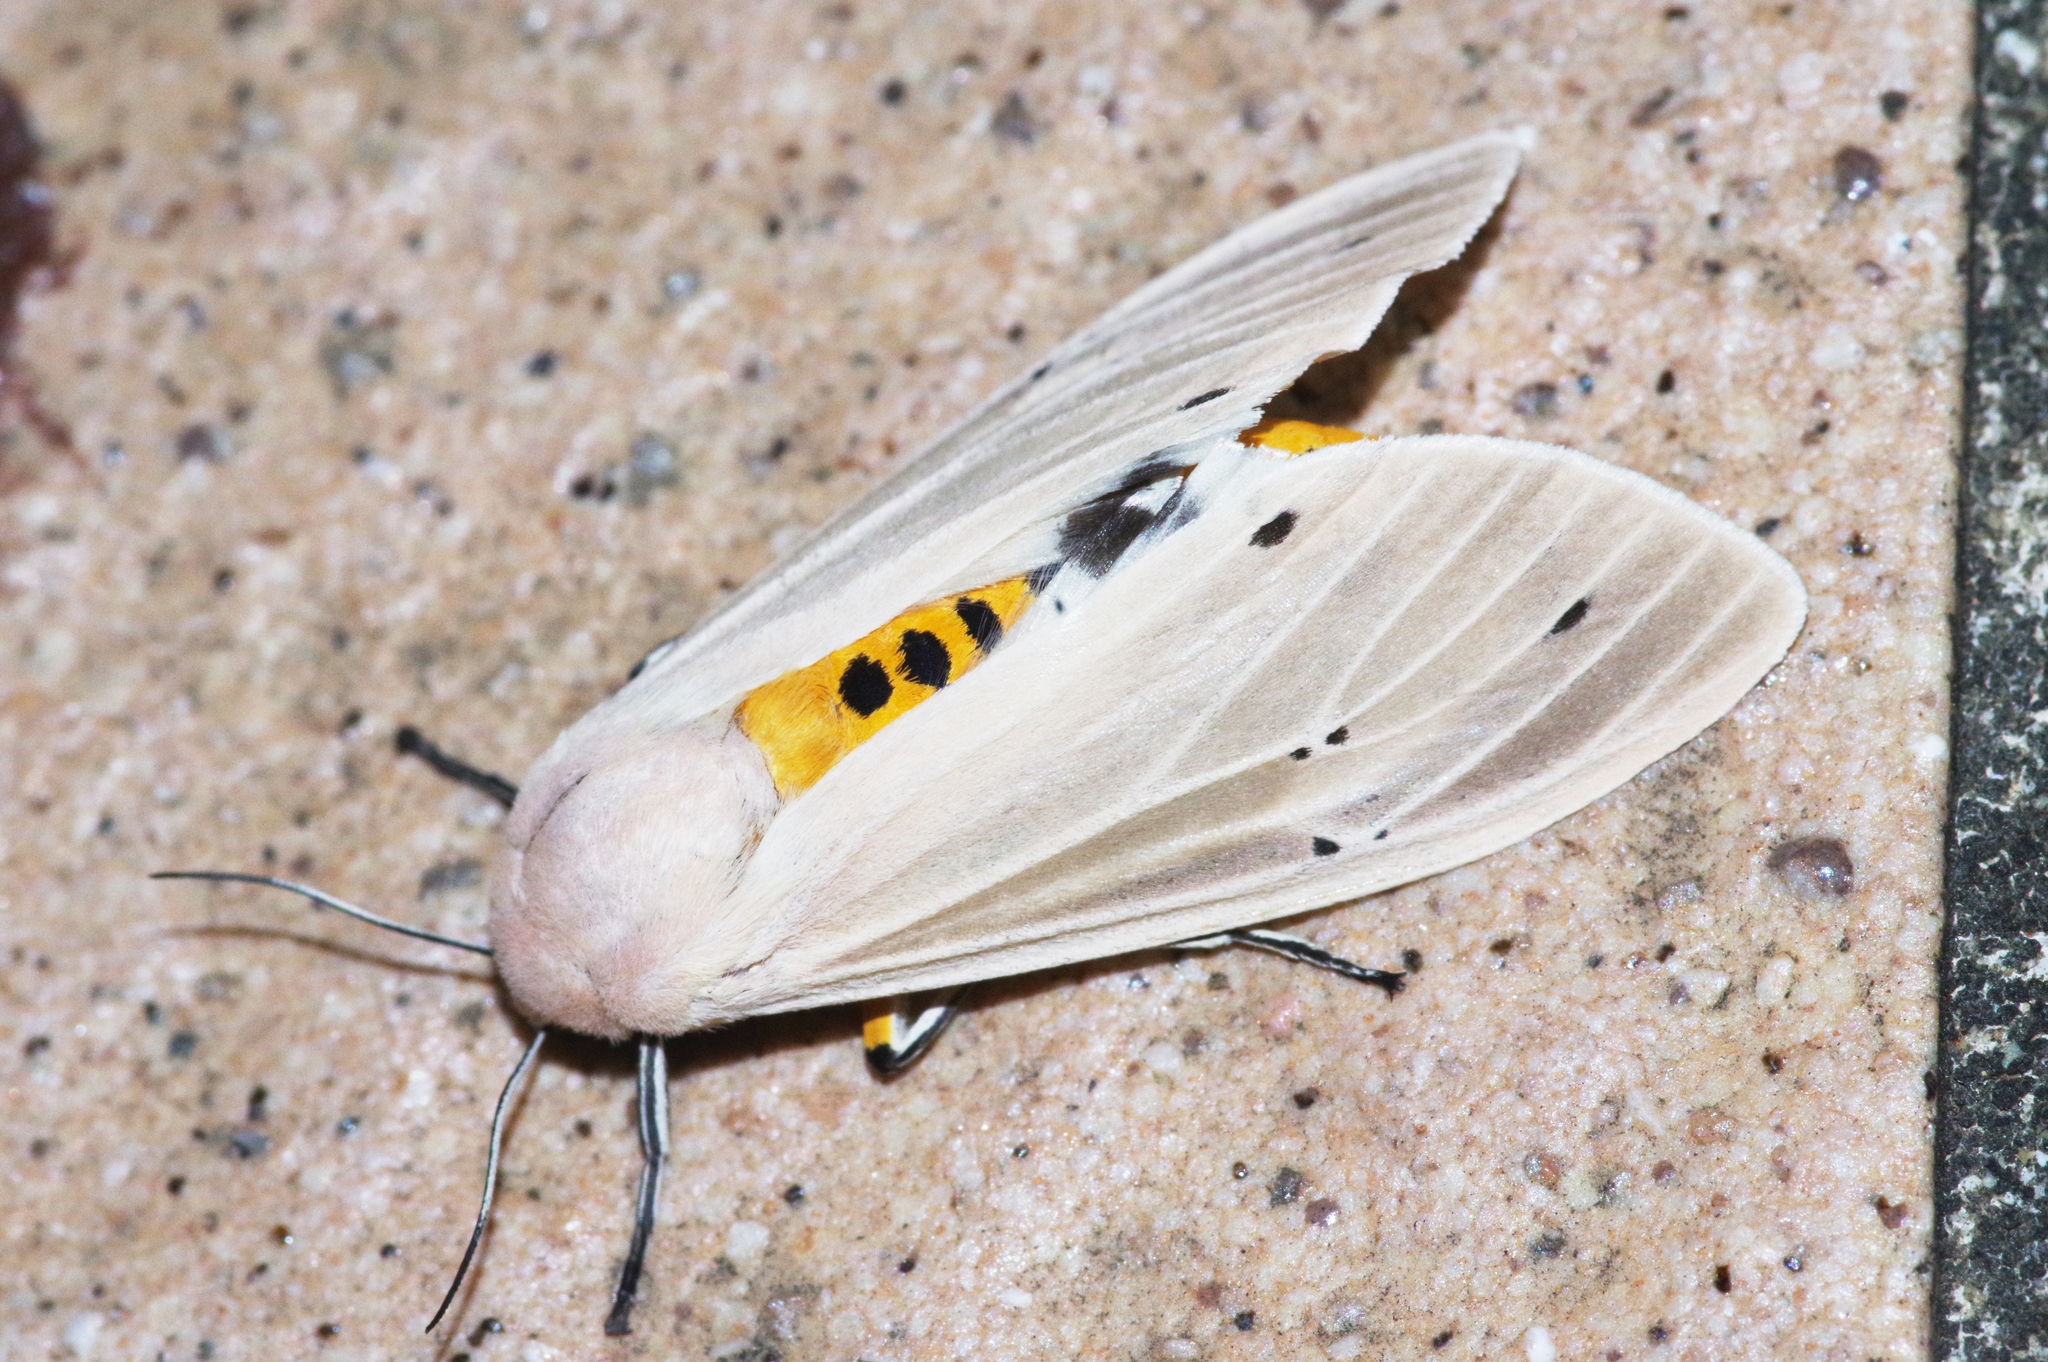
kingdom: Animalia
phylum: Arthropoda
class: Insecta
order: Lepidoptera
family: Erebidae
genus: Creatonotos
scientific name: Creatonotos transiens
